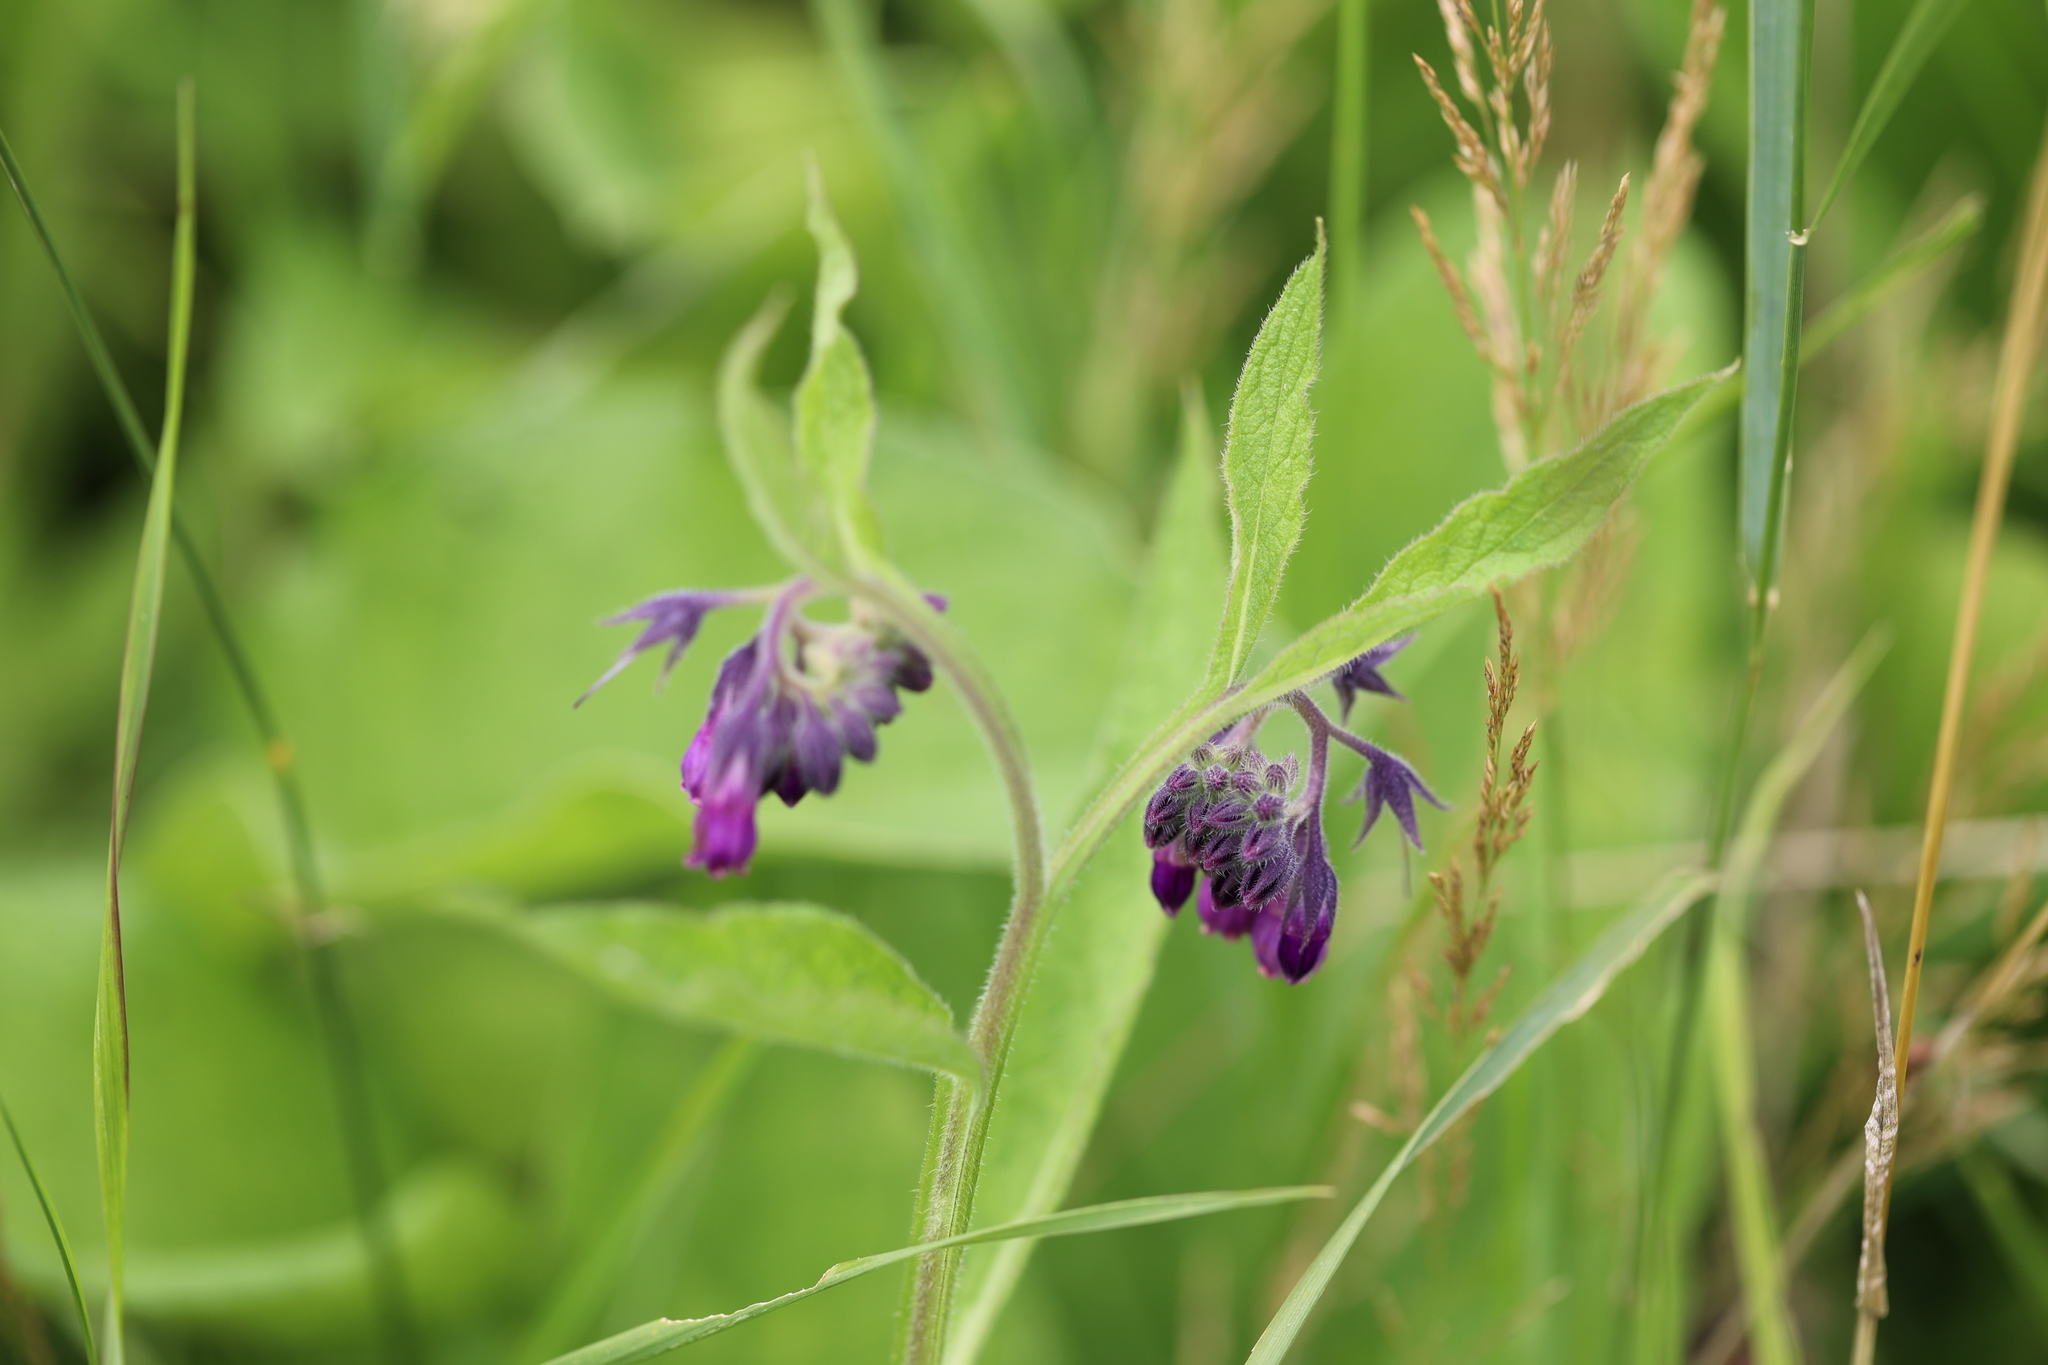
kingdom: Plantae
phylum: Tracheophyta
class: Magnoliopsida
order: Boraginales
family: Boraginaceae
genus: Symphytum
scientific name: Symphytum officinale
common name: Common comfrey
